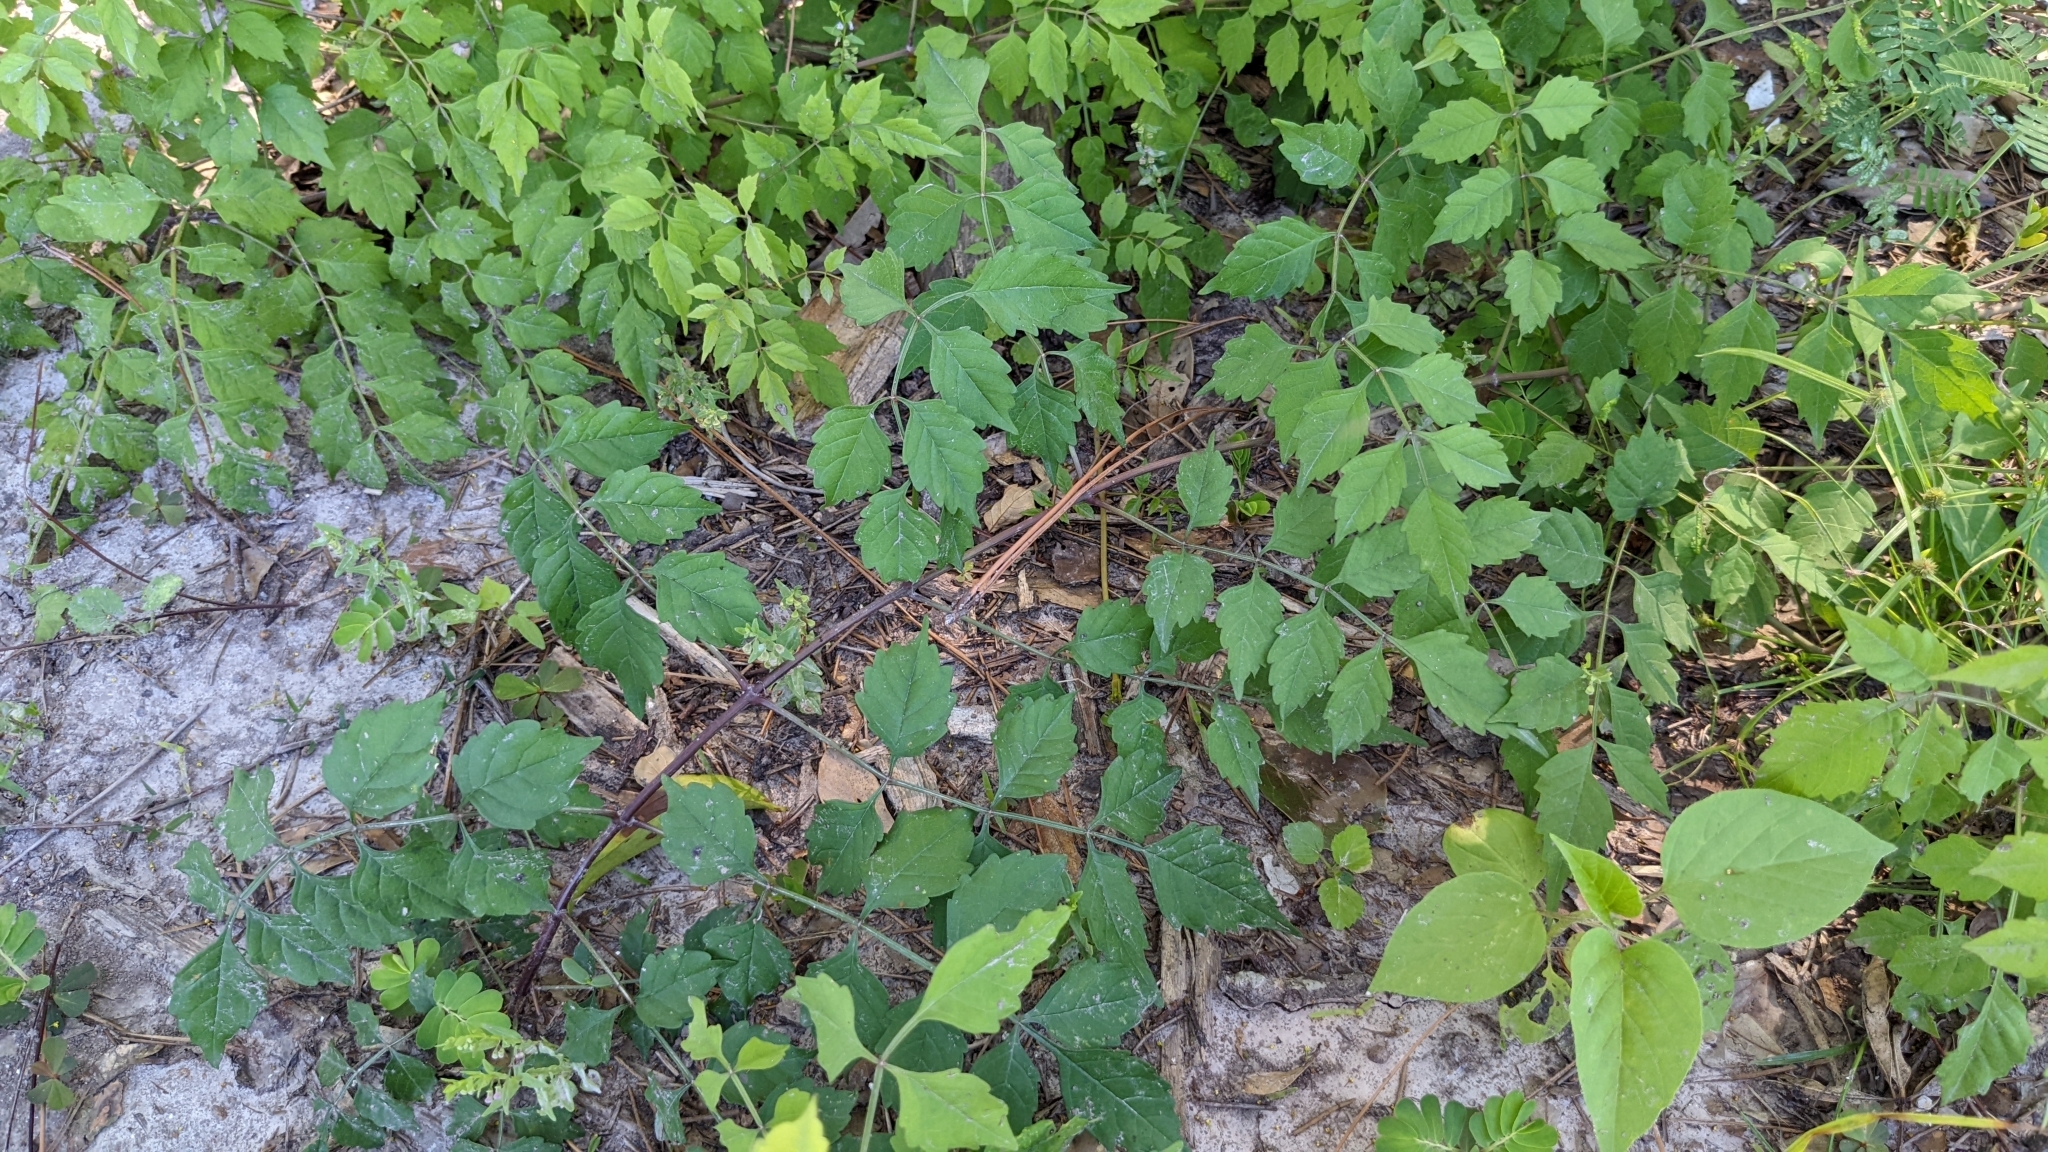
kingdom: Plantae
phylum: Tracheophyta
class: Magnoliopsida
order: Lamiales
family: Bignoniaceae
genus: Campsis
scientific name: Campsis radicans
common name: Trumpet-creeper
